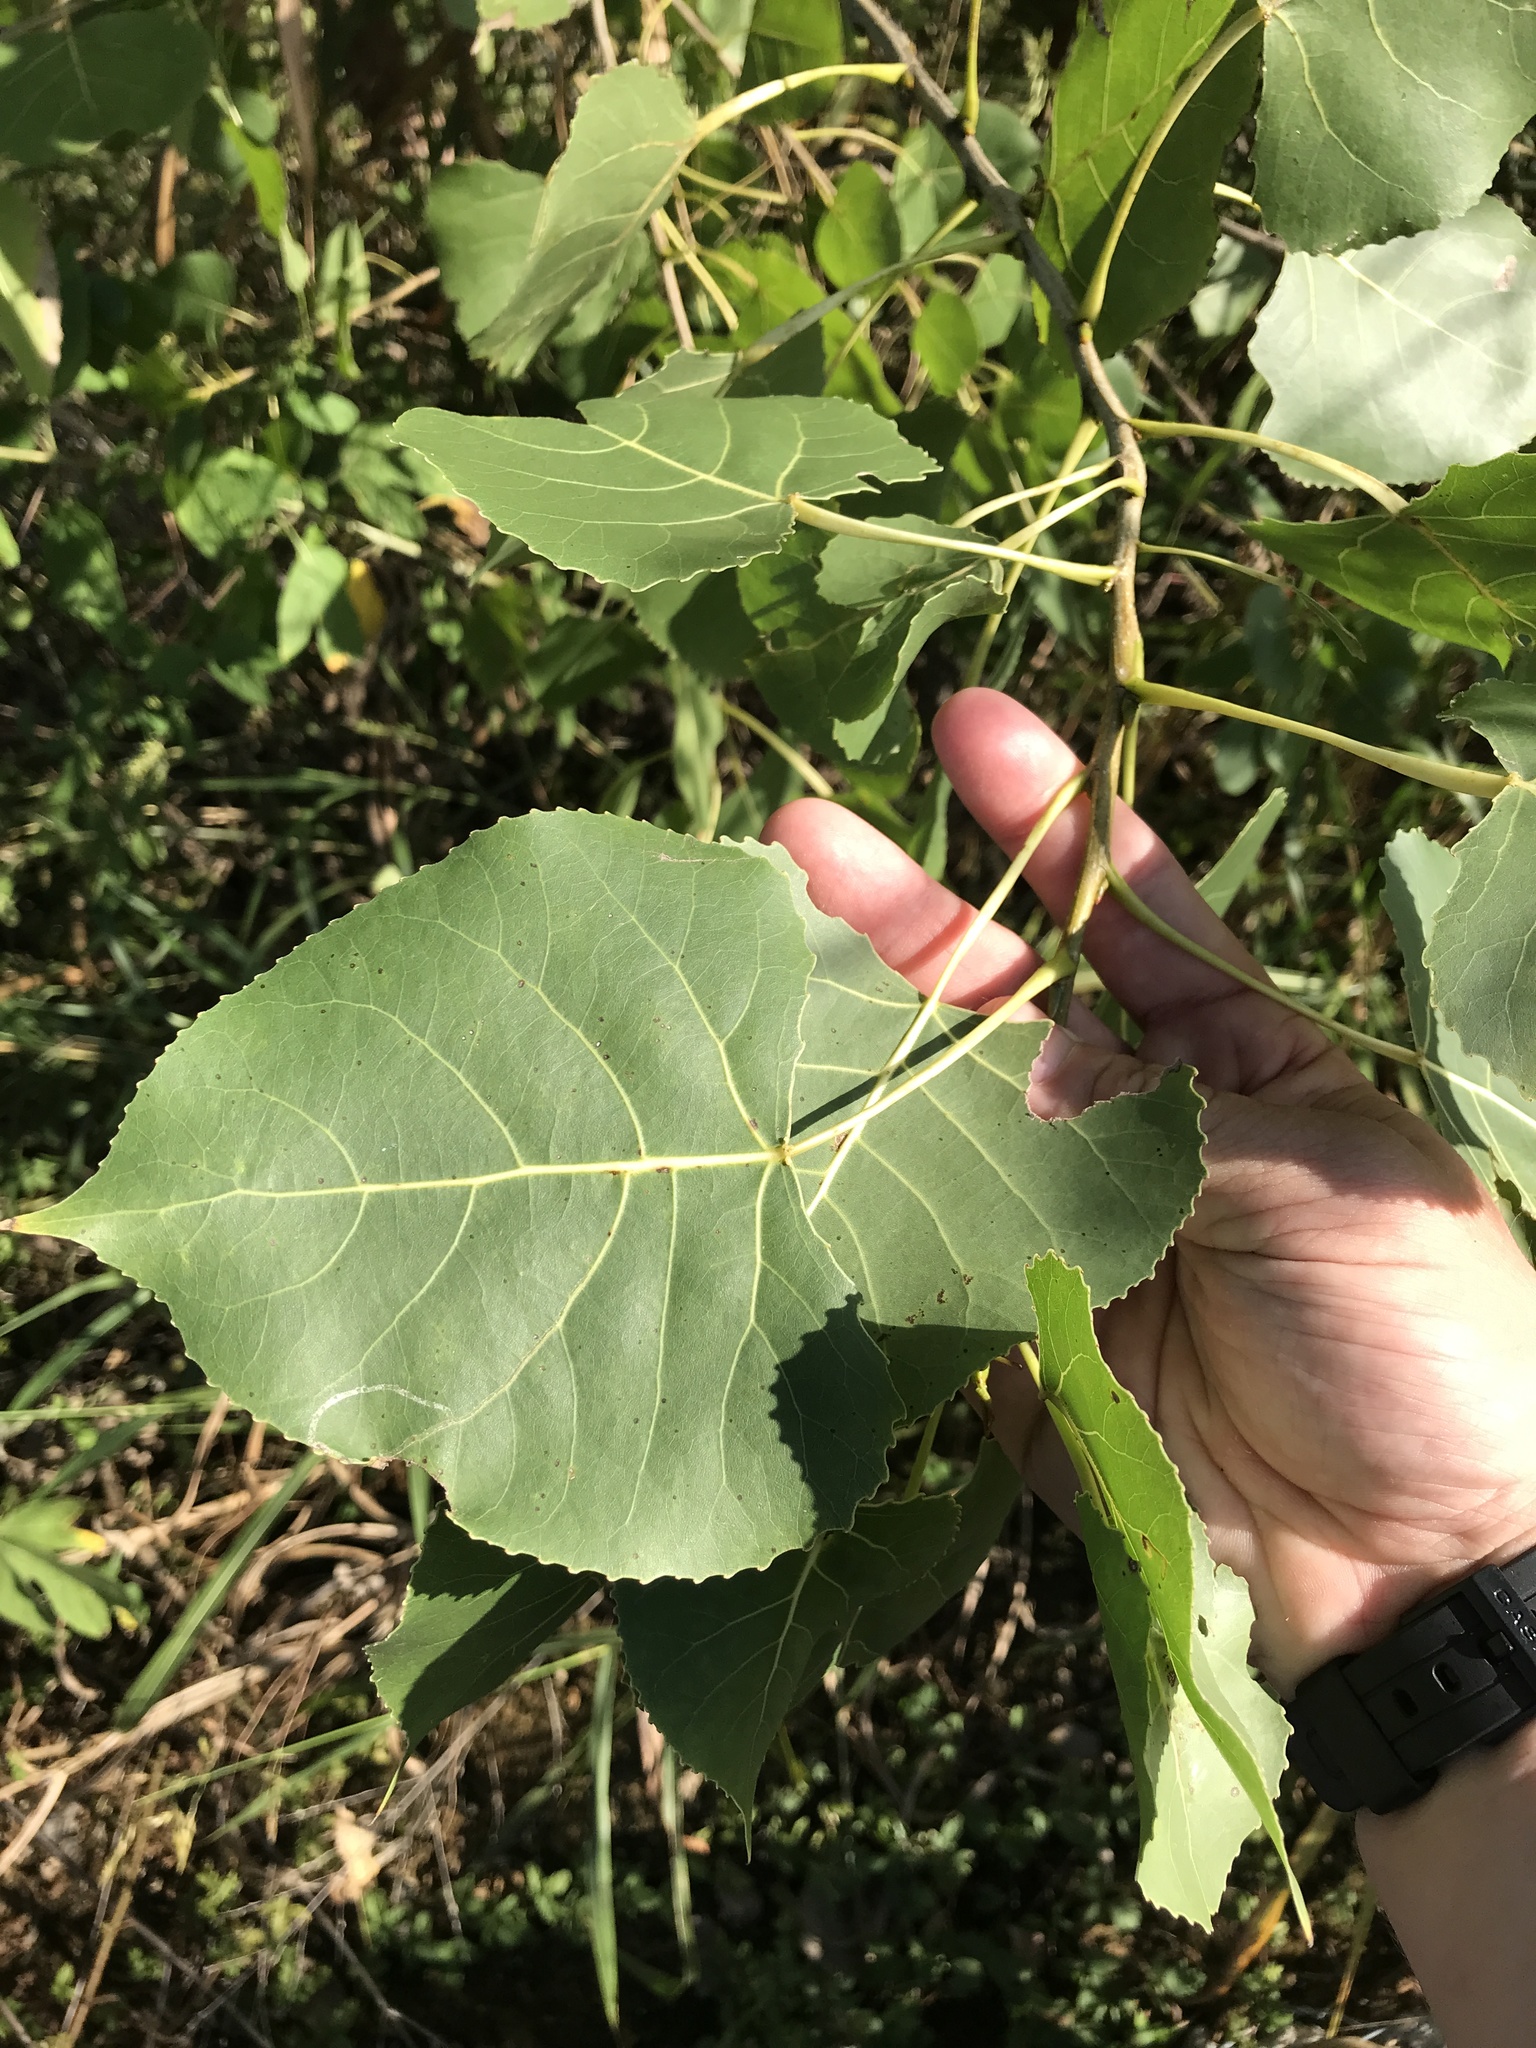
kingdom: Plantae
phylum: Tracheophyta
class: Magnoliopsida
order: Malpighiales
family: Salicaceae
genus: Populus
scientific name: Populus deltoides
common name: Eastern cottonwood
